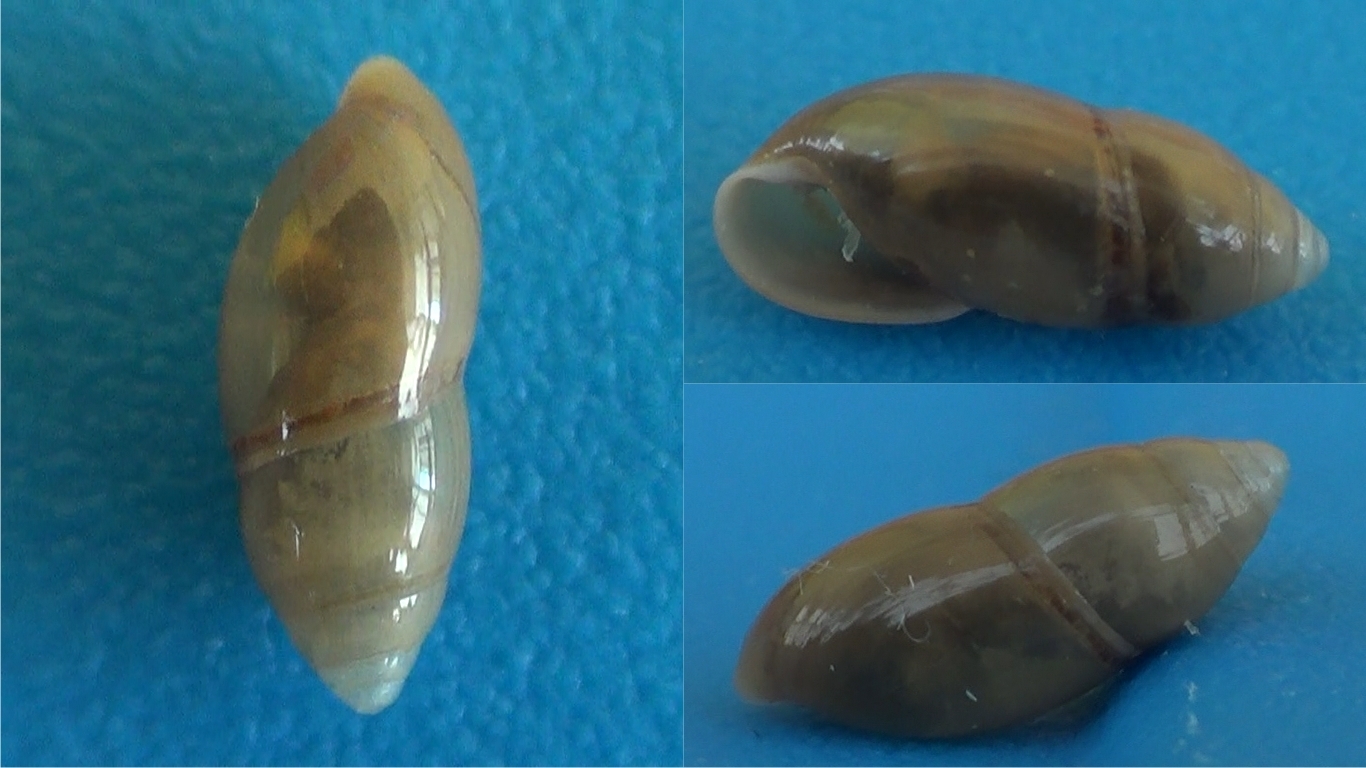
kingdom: Animalia
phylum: Mollusca
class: Gastropoda
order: Stylommatophora
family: Ferussaciidae
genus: Ferussacia
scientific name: Ferussacia folliculum
